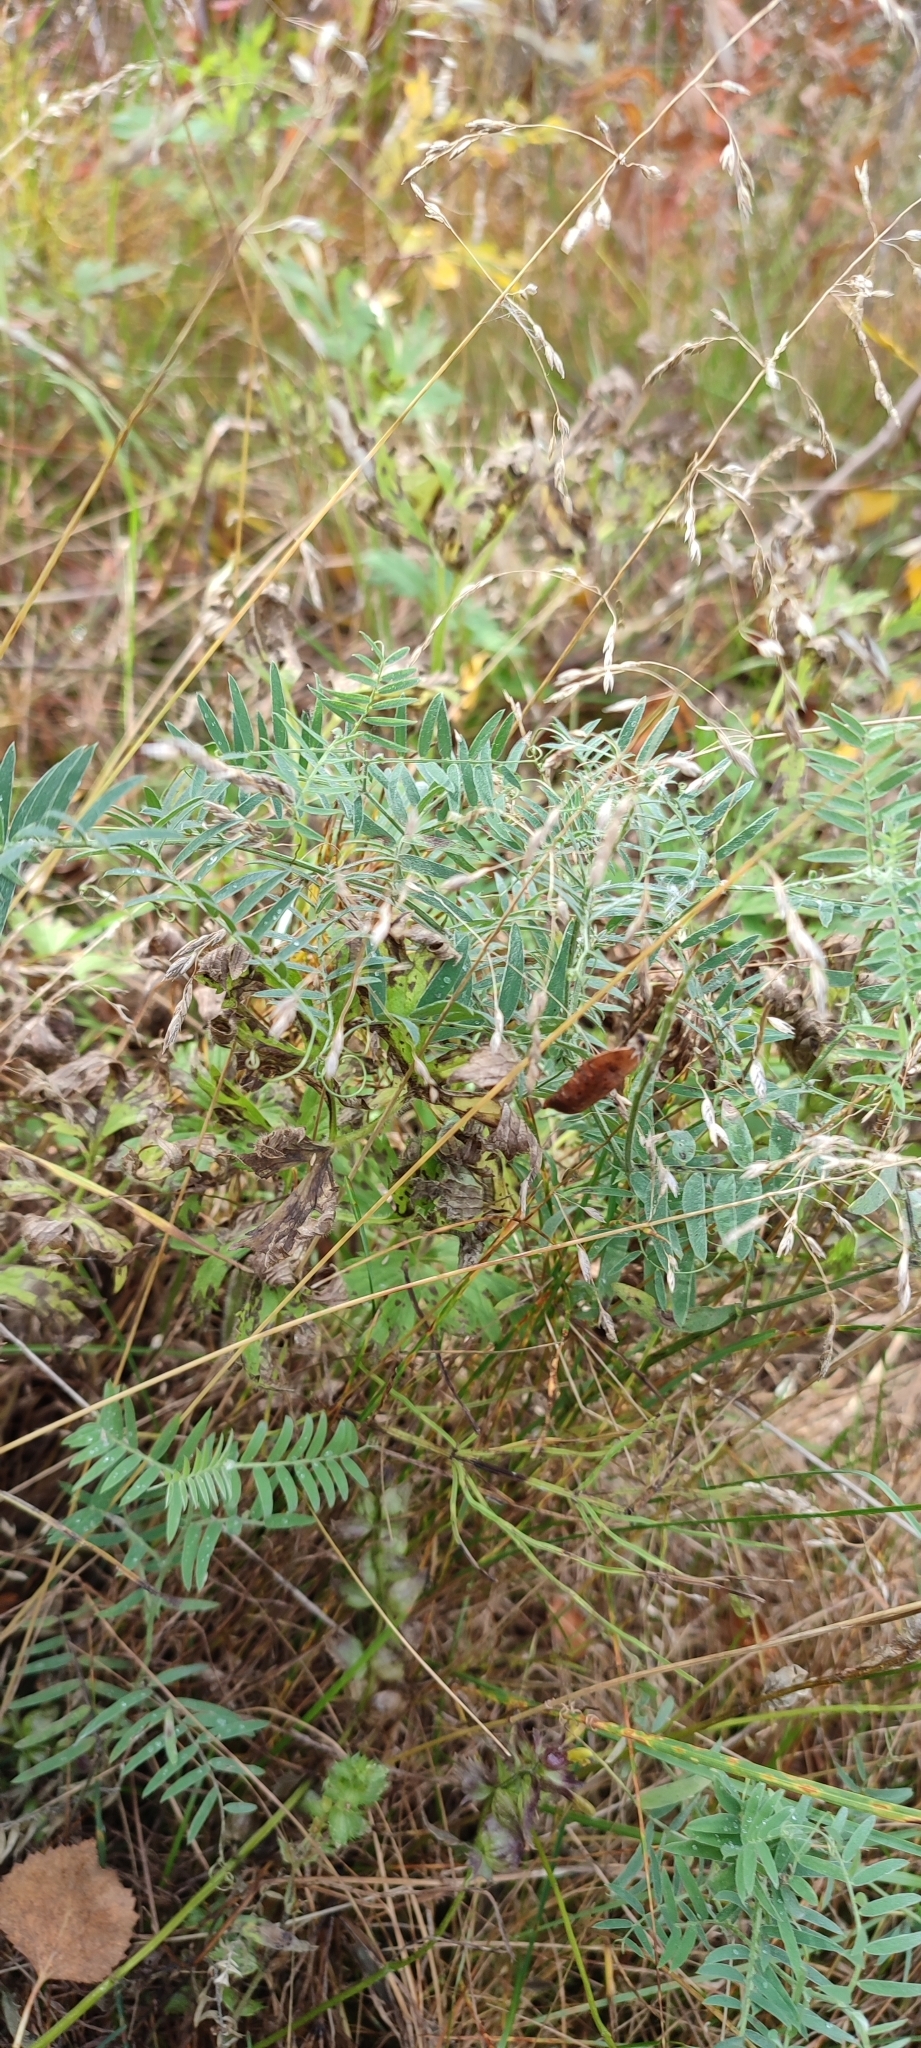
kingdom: Plantae
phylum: Tracheophyta
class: Magnoliopsida
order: Fabales
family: Fabaceae
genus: Vicia
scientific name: Vicia cracca
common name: Bird vetch
